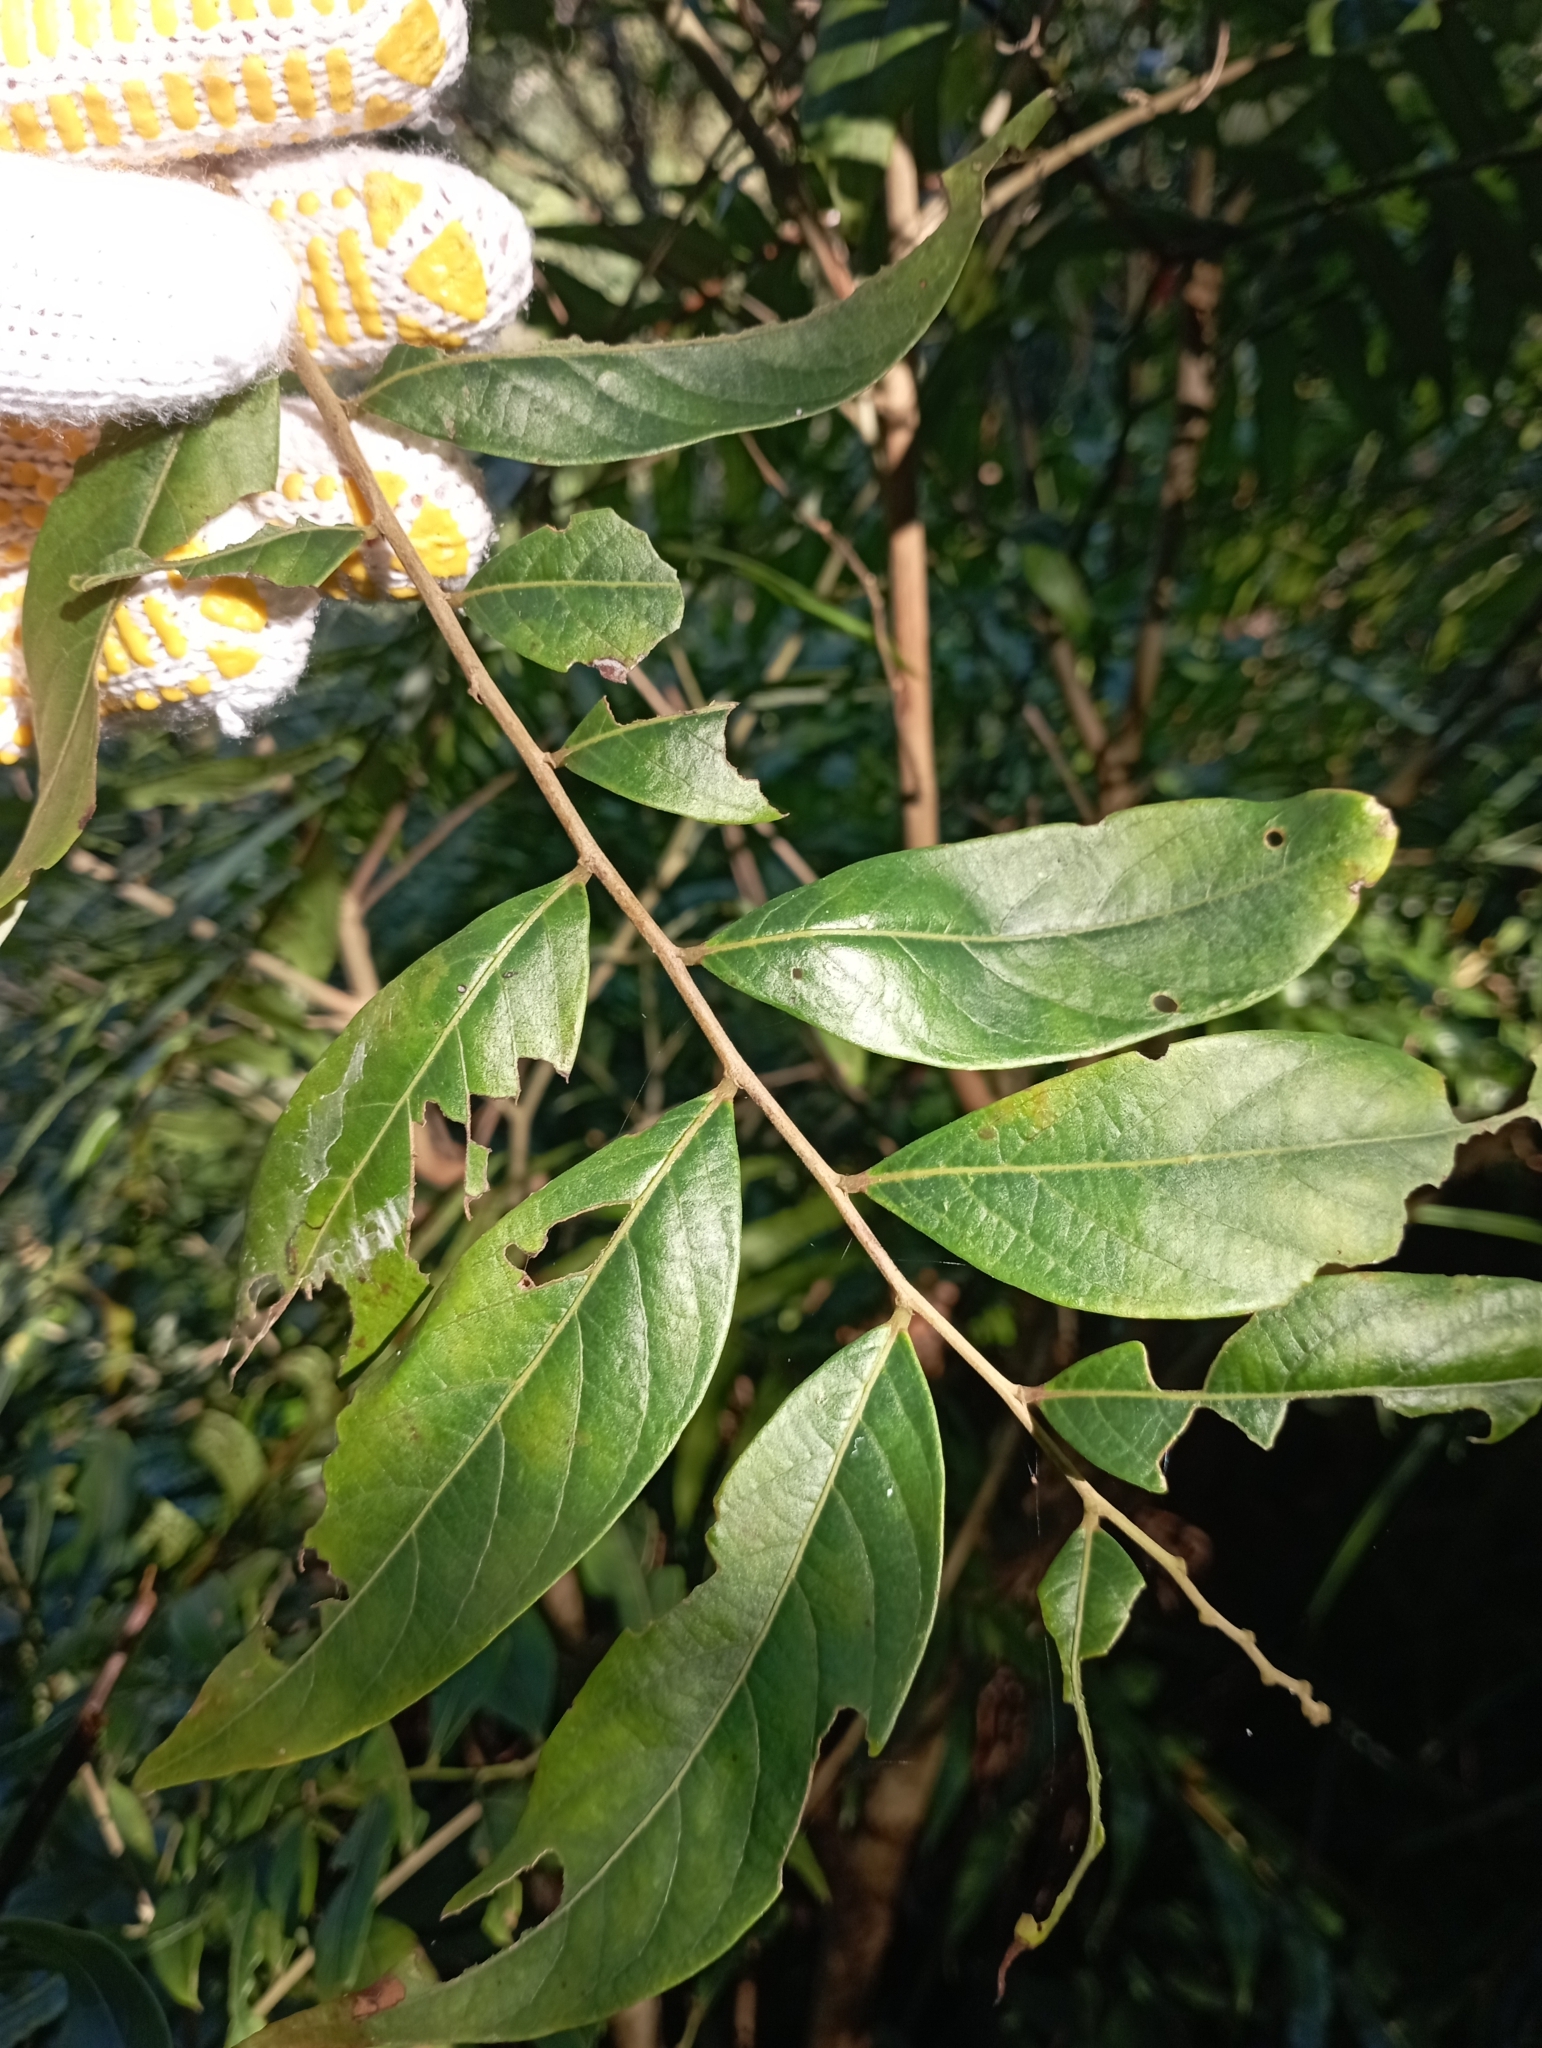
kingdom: Plantae
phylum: Tracheophyta
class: Magnoliopsida
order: Malpighiales
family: Phyllanthaceae
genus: Glochidion
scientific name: Glochidion acuminatum
